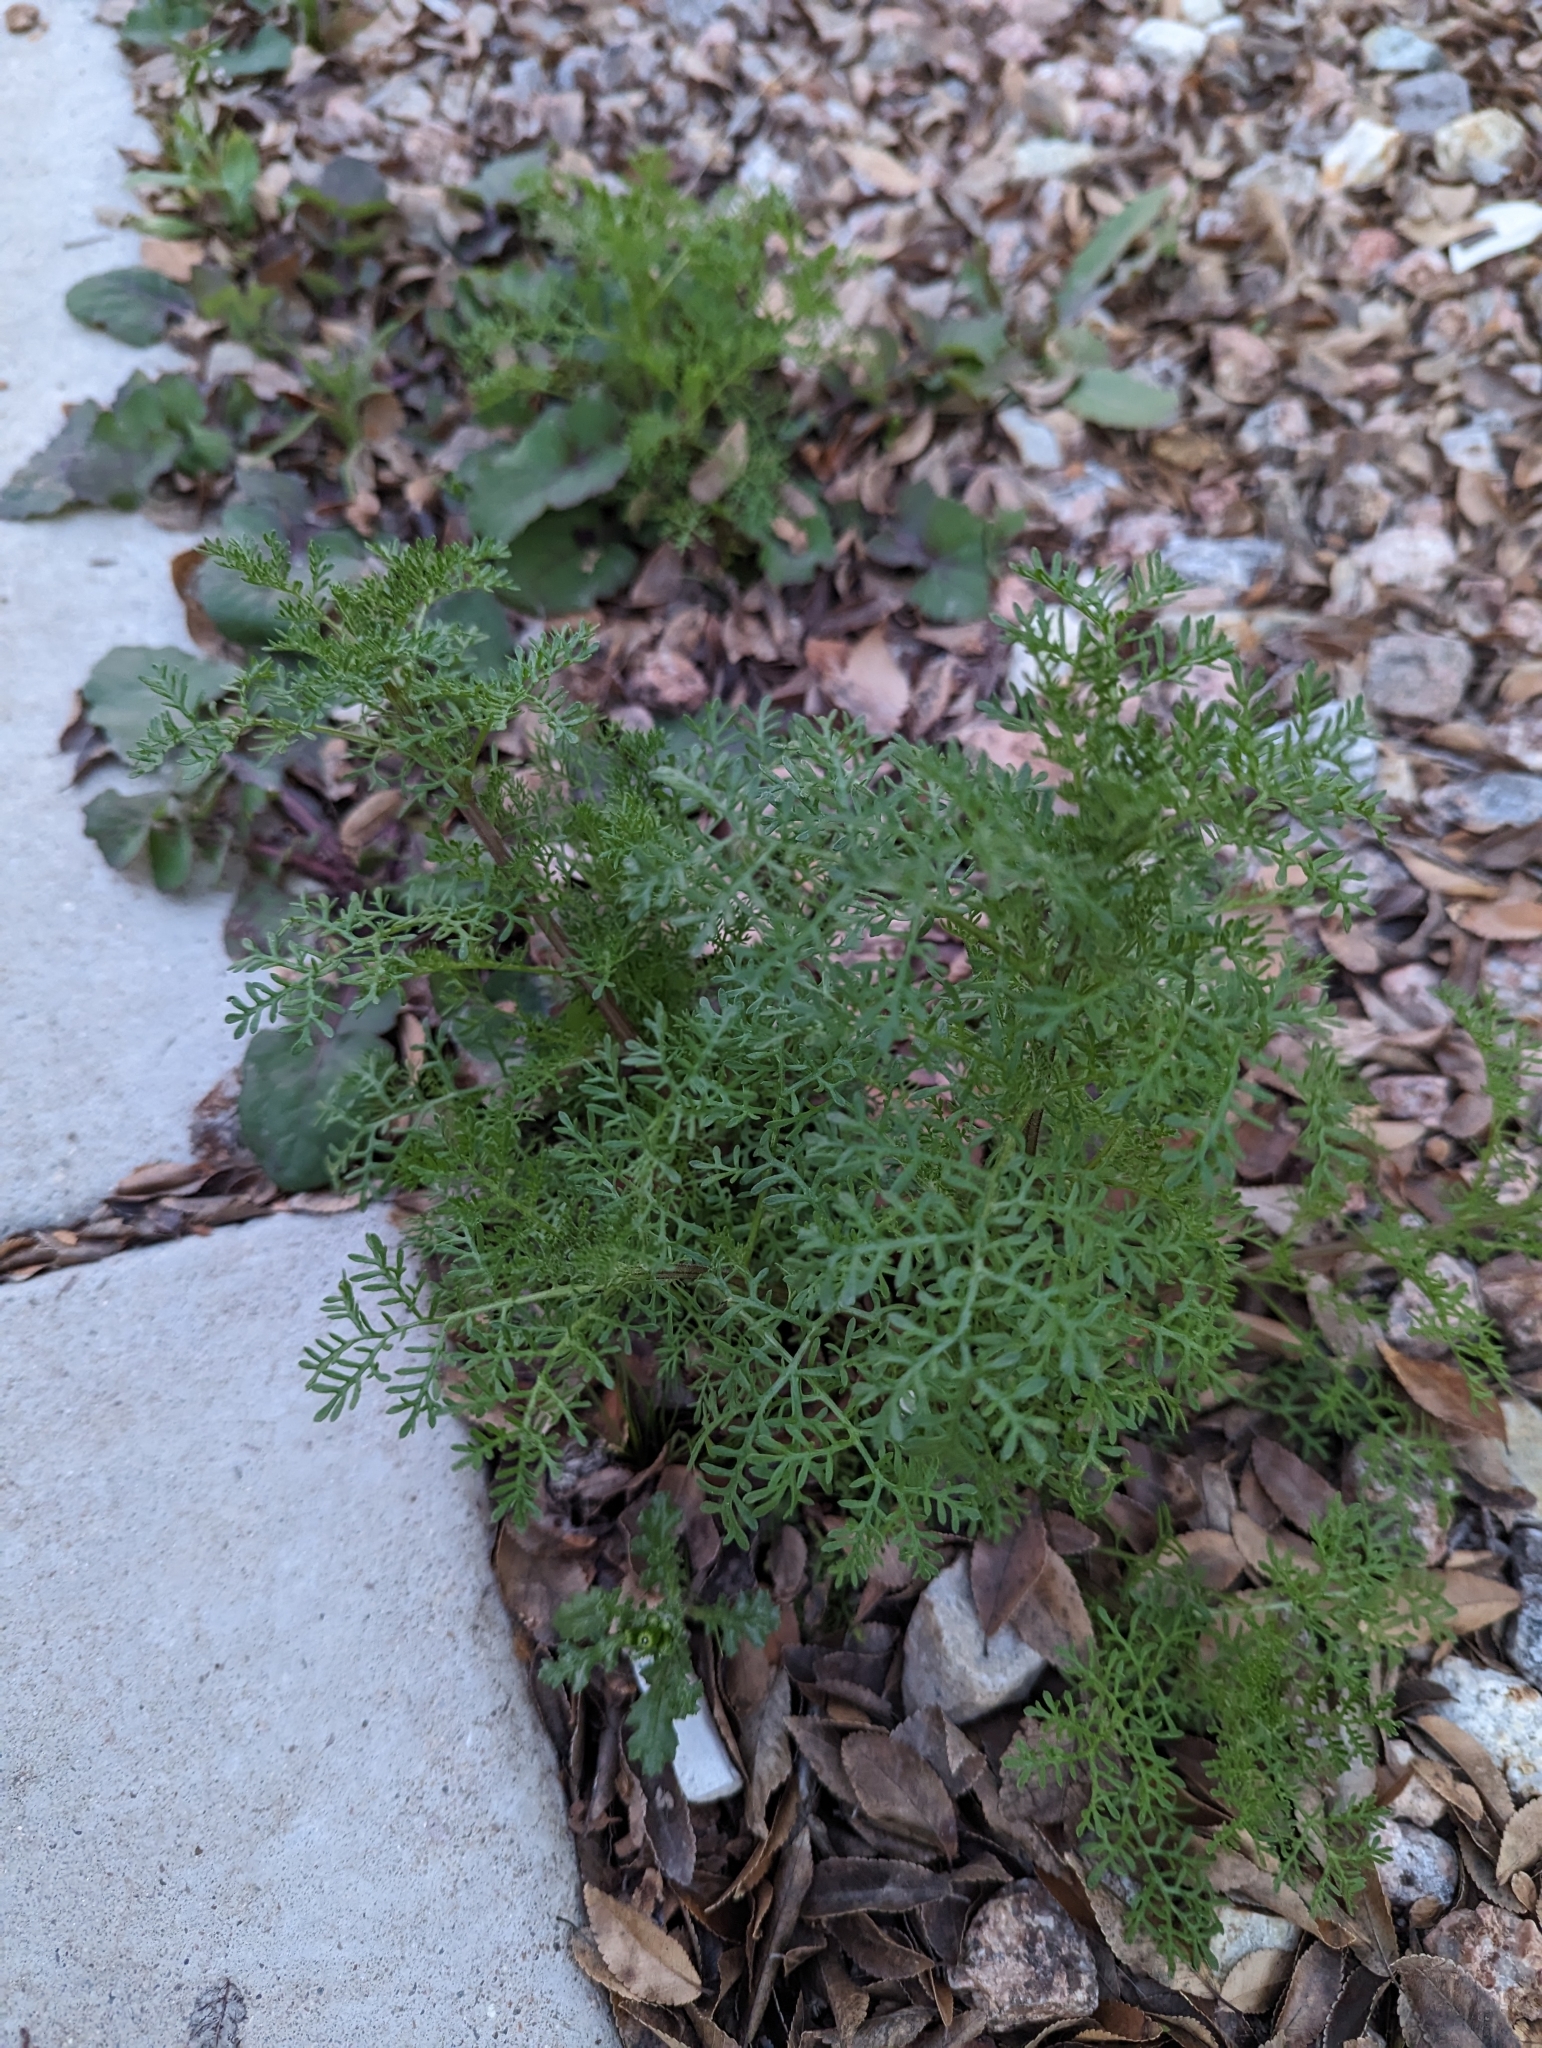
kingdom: Plantae
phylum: Tracheophyta
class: Magnoliopsida
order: Asterales
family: Asteraceae
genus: Oncosiphon
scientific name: Oncosiphon pilulifer
